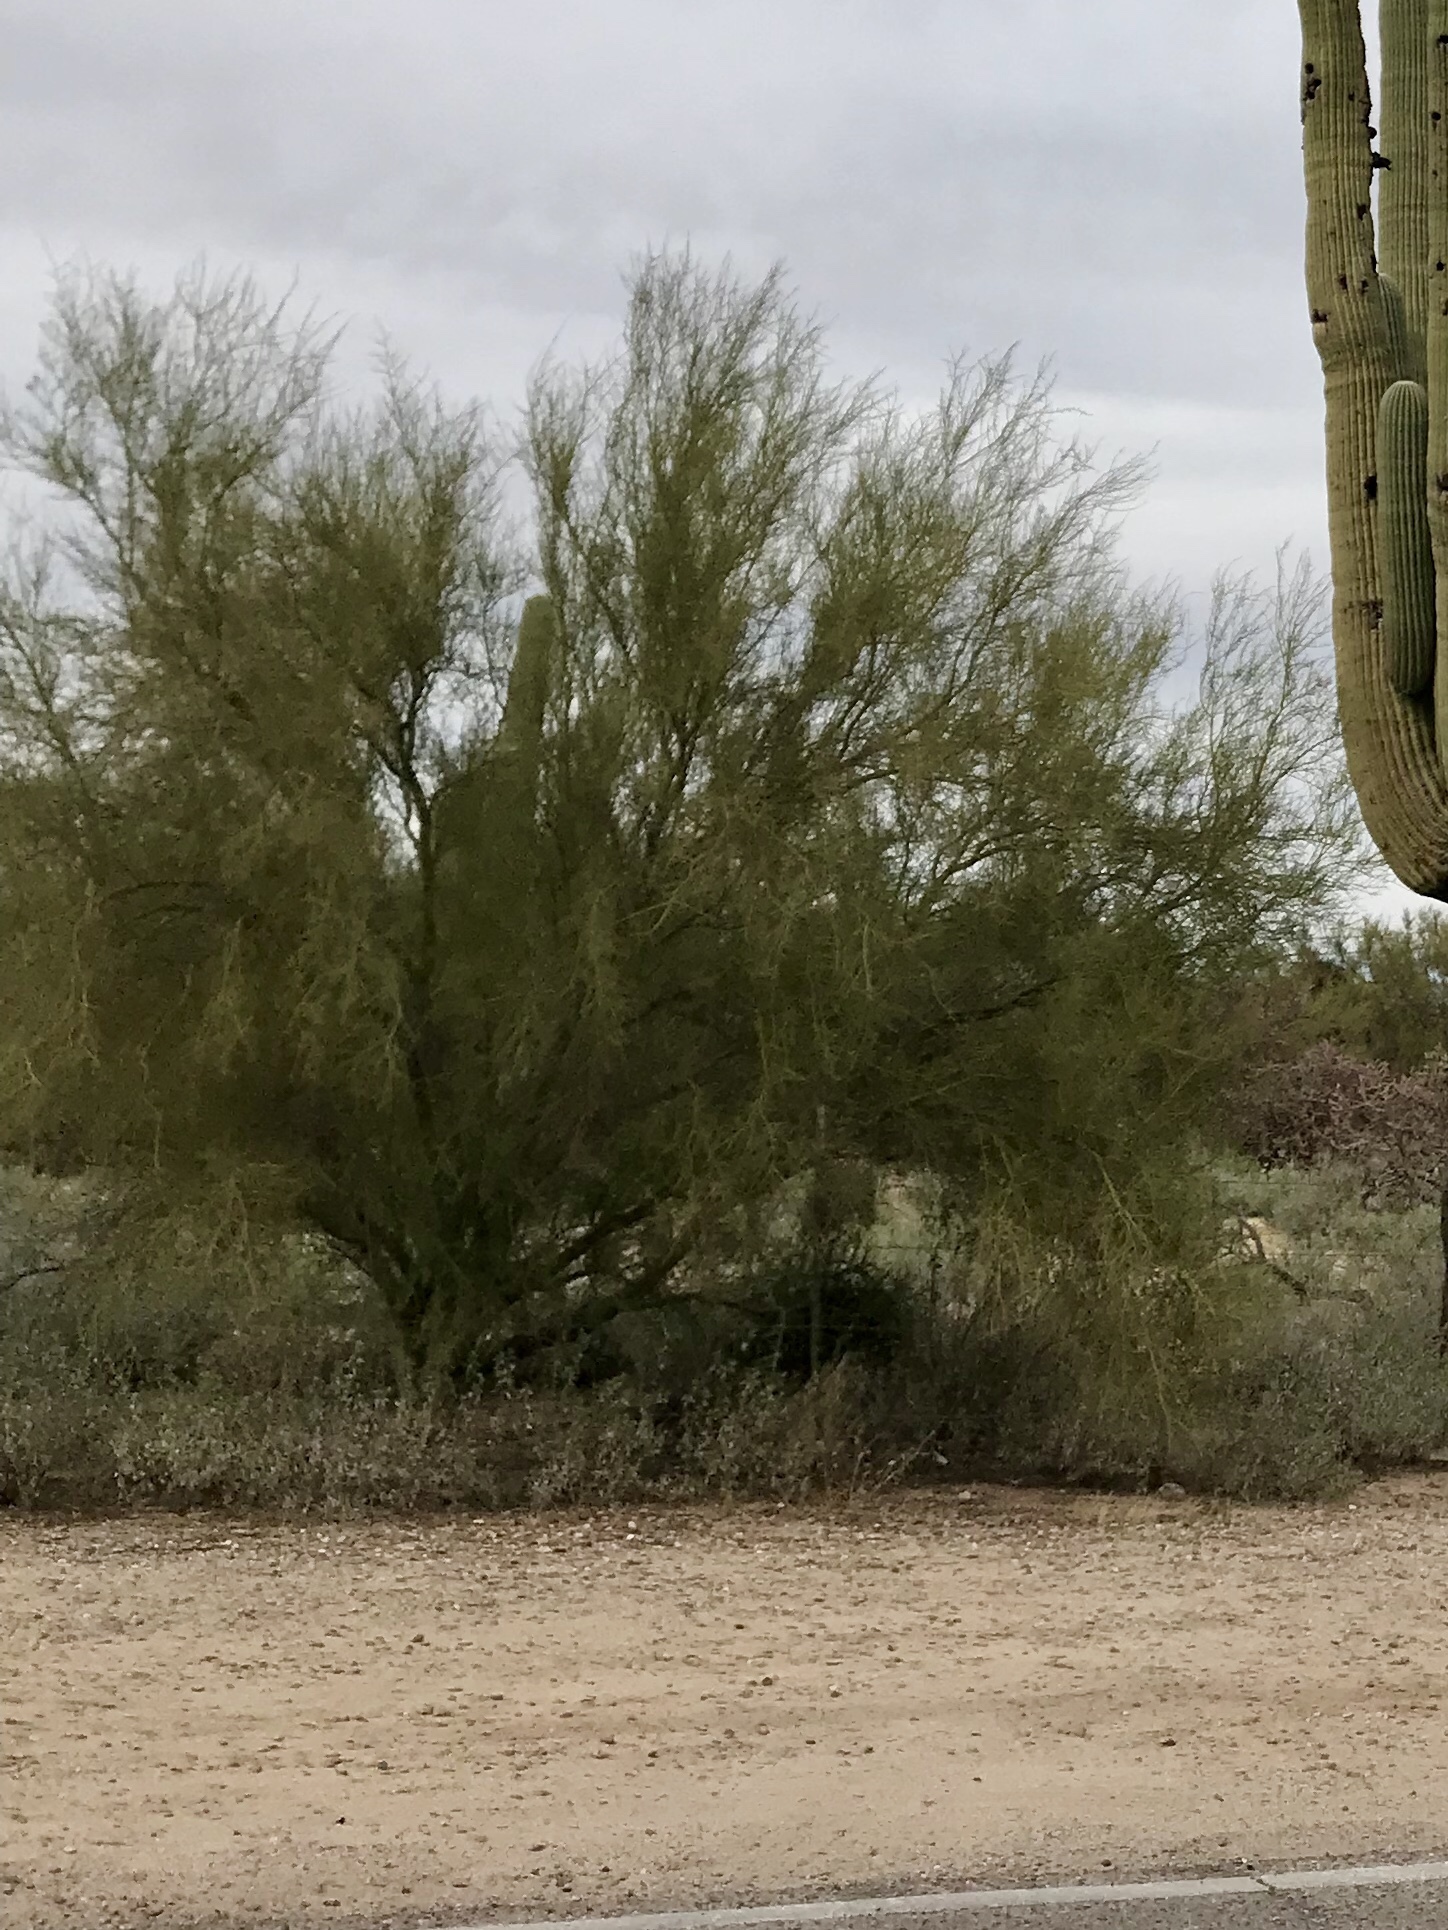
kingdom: Plantae
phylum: Tracheophyta
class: Magnoliopsida
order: Fabales
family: Fabaceae
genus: Parkinsonia
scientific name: Parkinsonia microphylla
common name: Yellow paloverde
